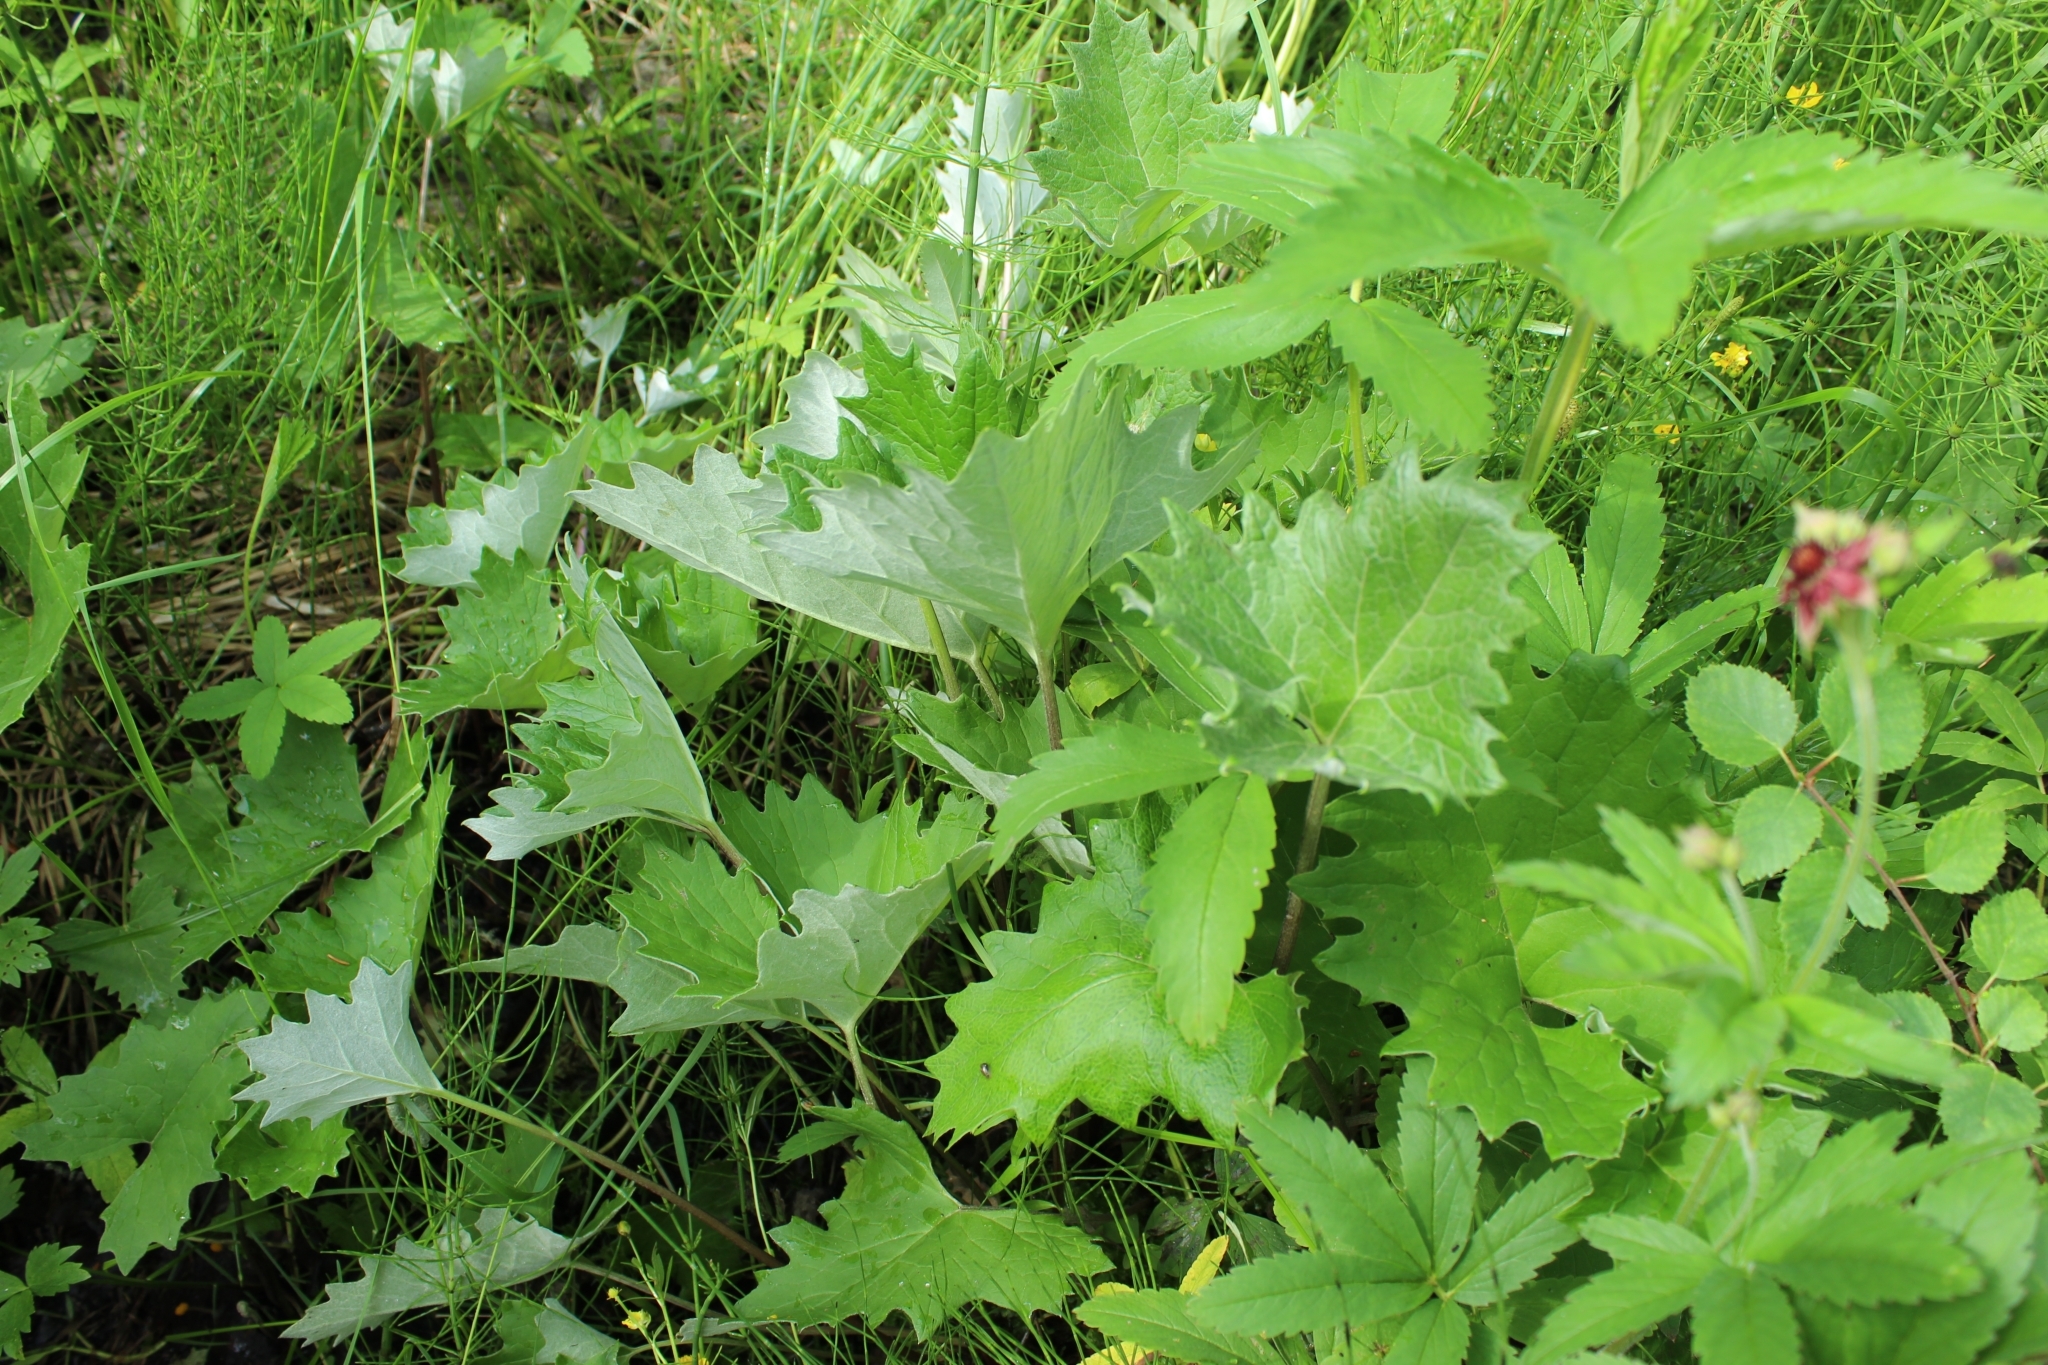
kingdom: Plantae
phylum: Tracheophyta
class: Magnoliopsida
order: Asterales
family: Asteraceae
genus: Petasites
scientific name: Petasites frigidus
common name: Arctic butterbur
